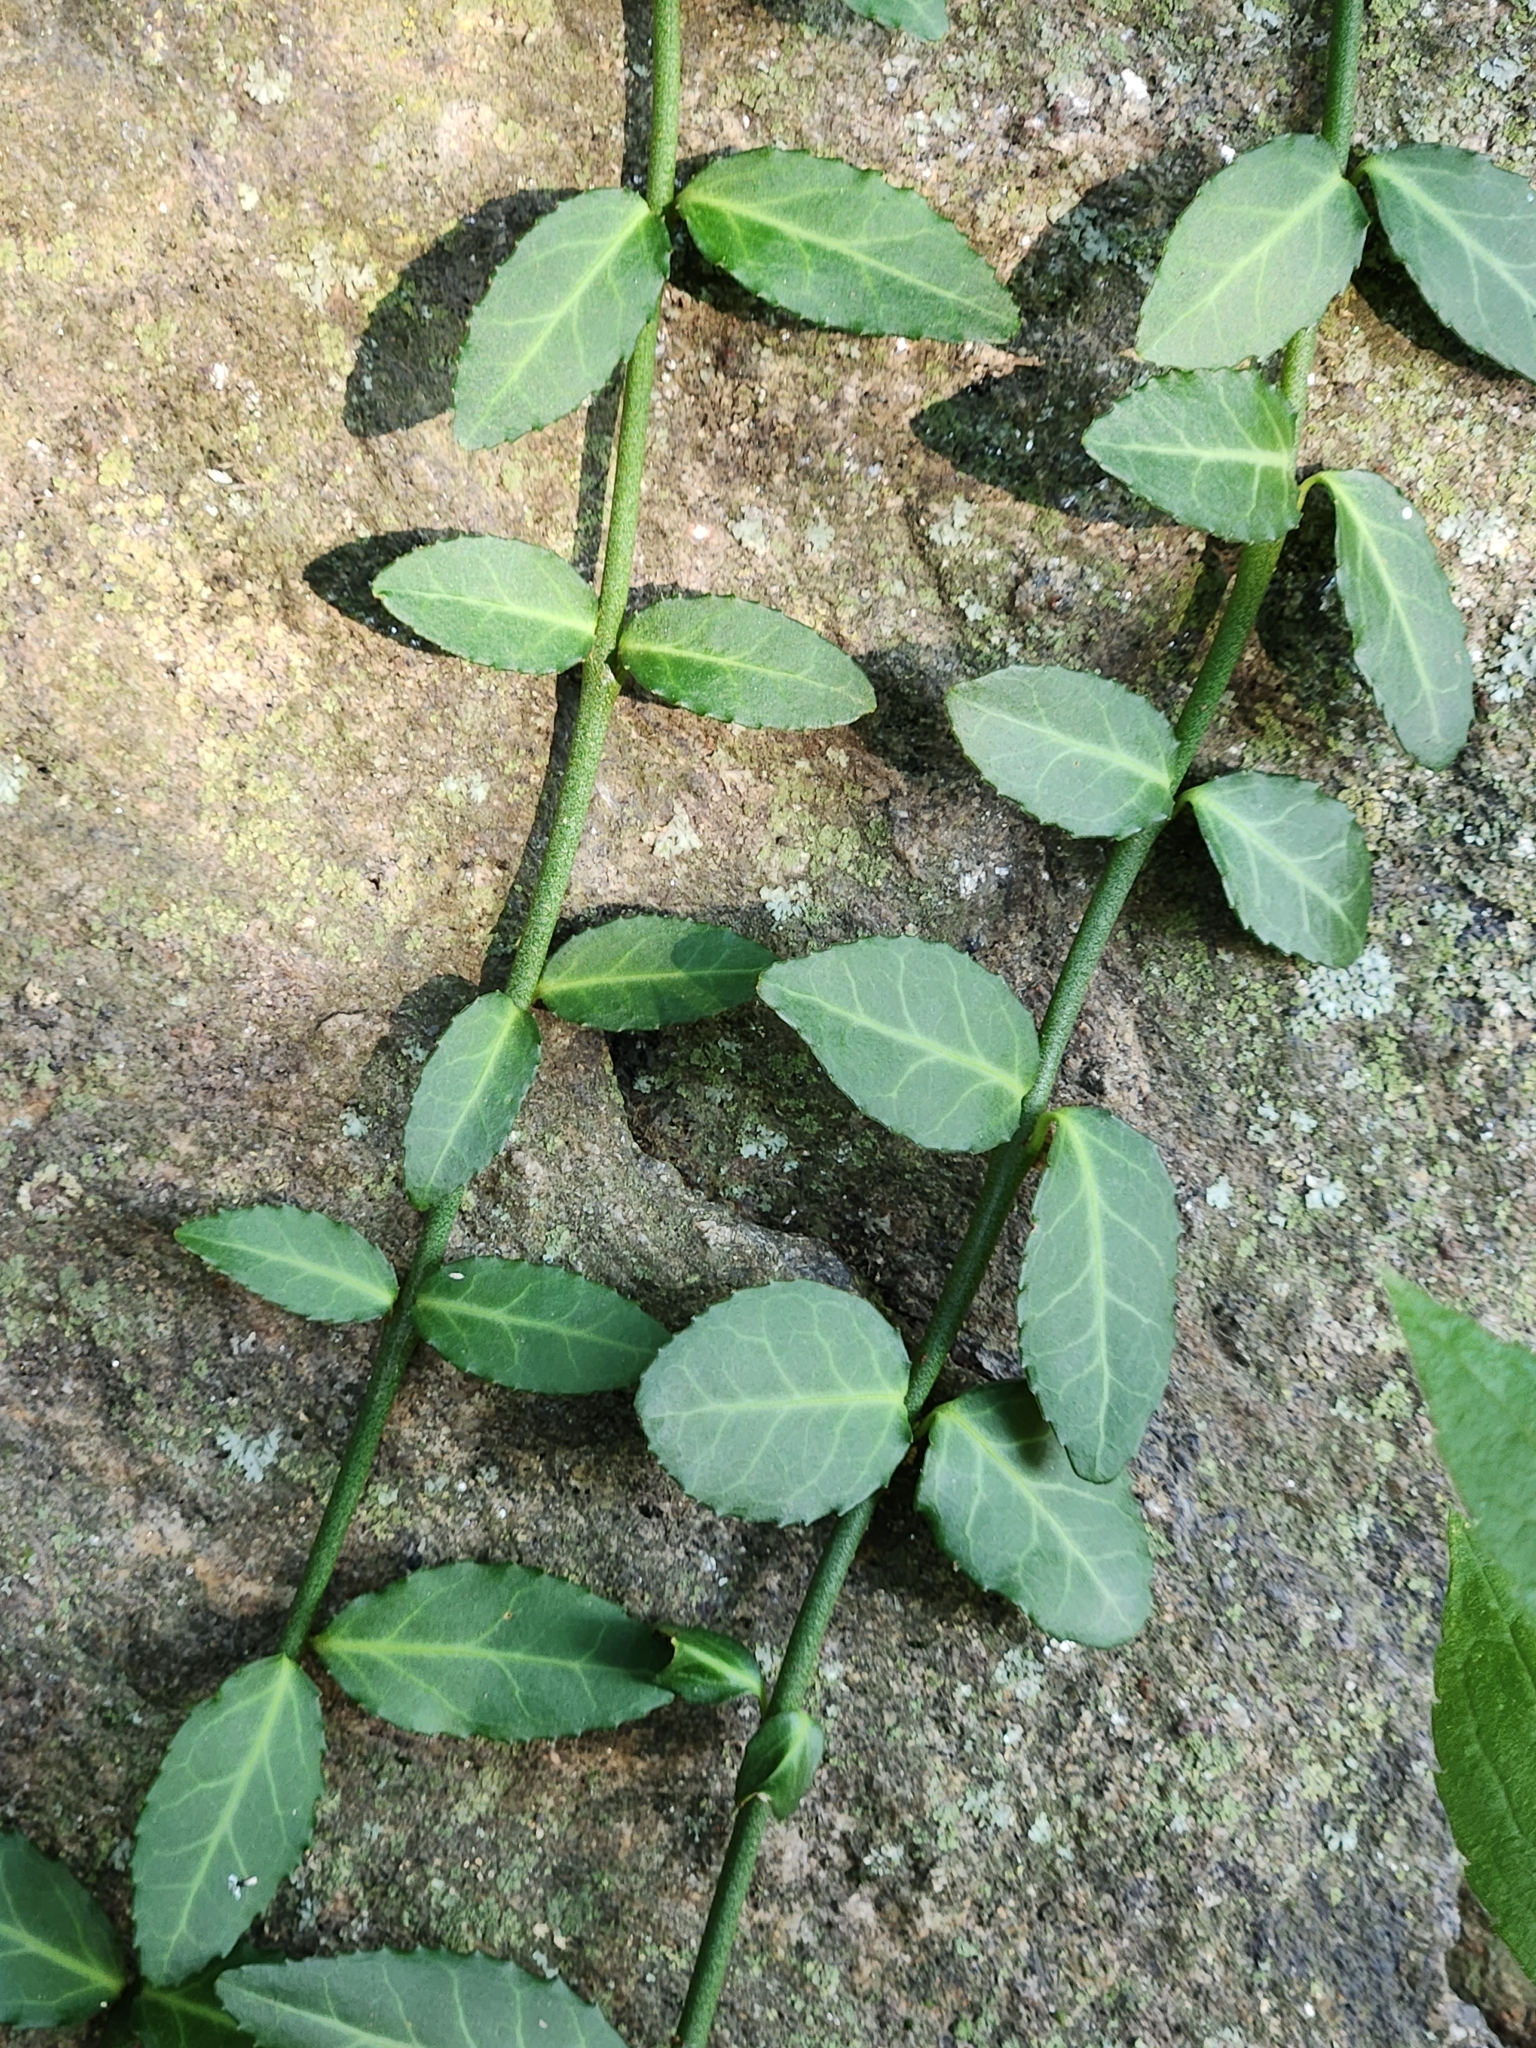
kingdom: Plantae
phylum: Tracheophyta
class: Magnoliopsida
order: Celastrales
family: Celastraceae
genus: Euonymus
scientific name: Euonymus fortunei
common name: Climbing euonymus
